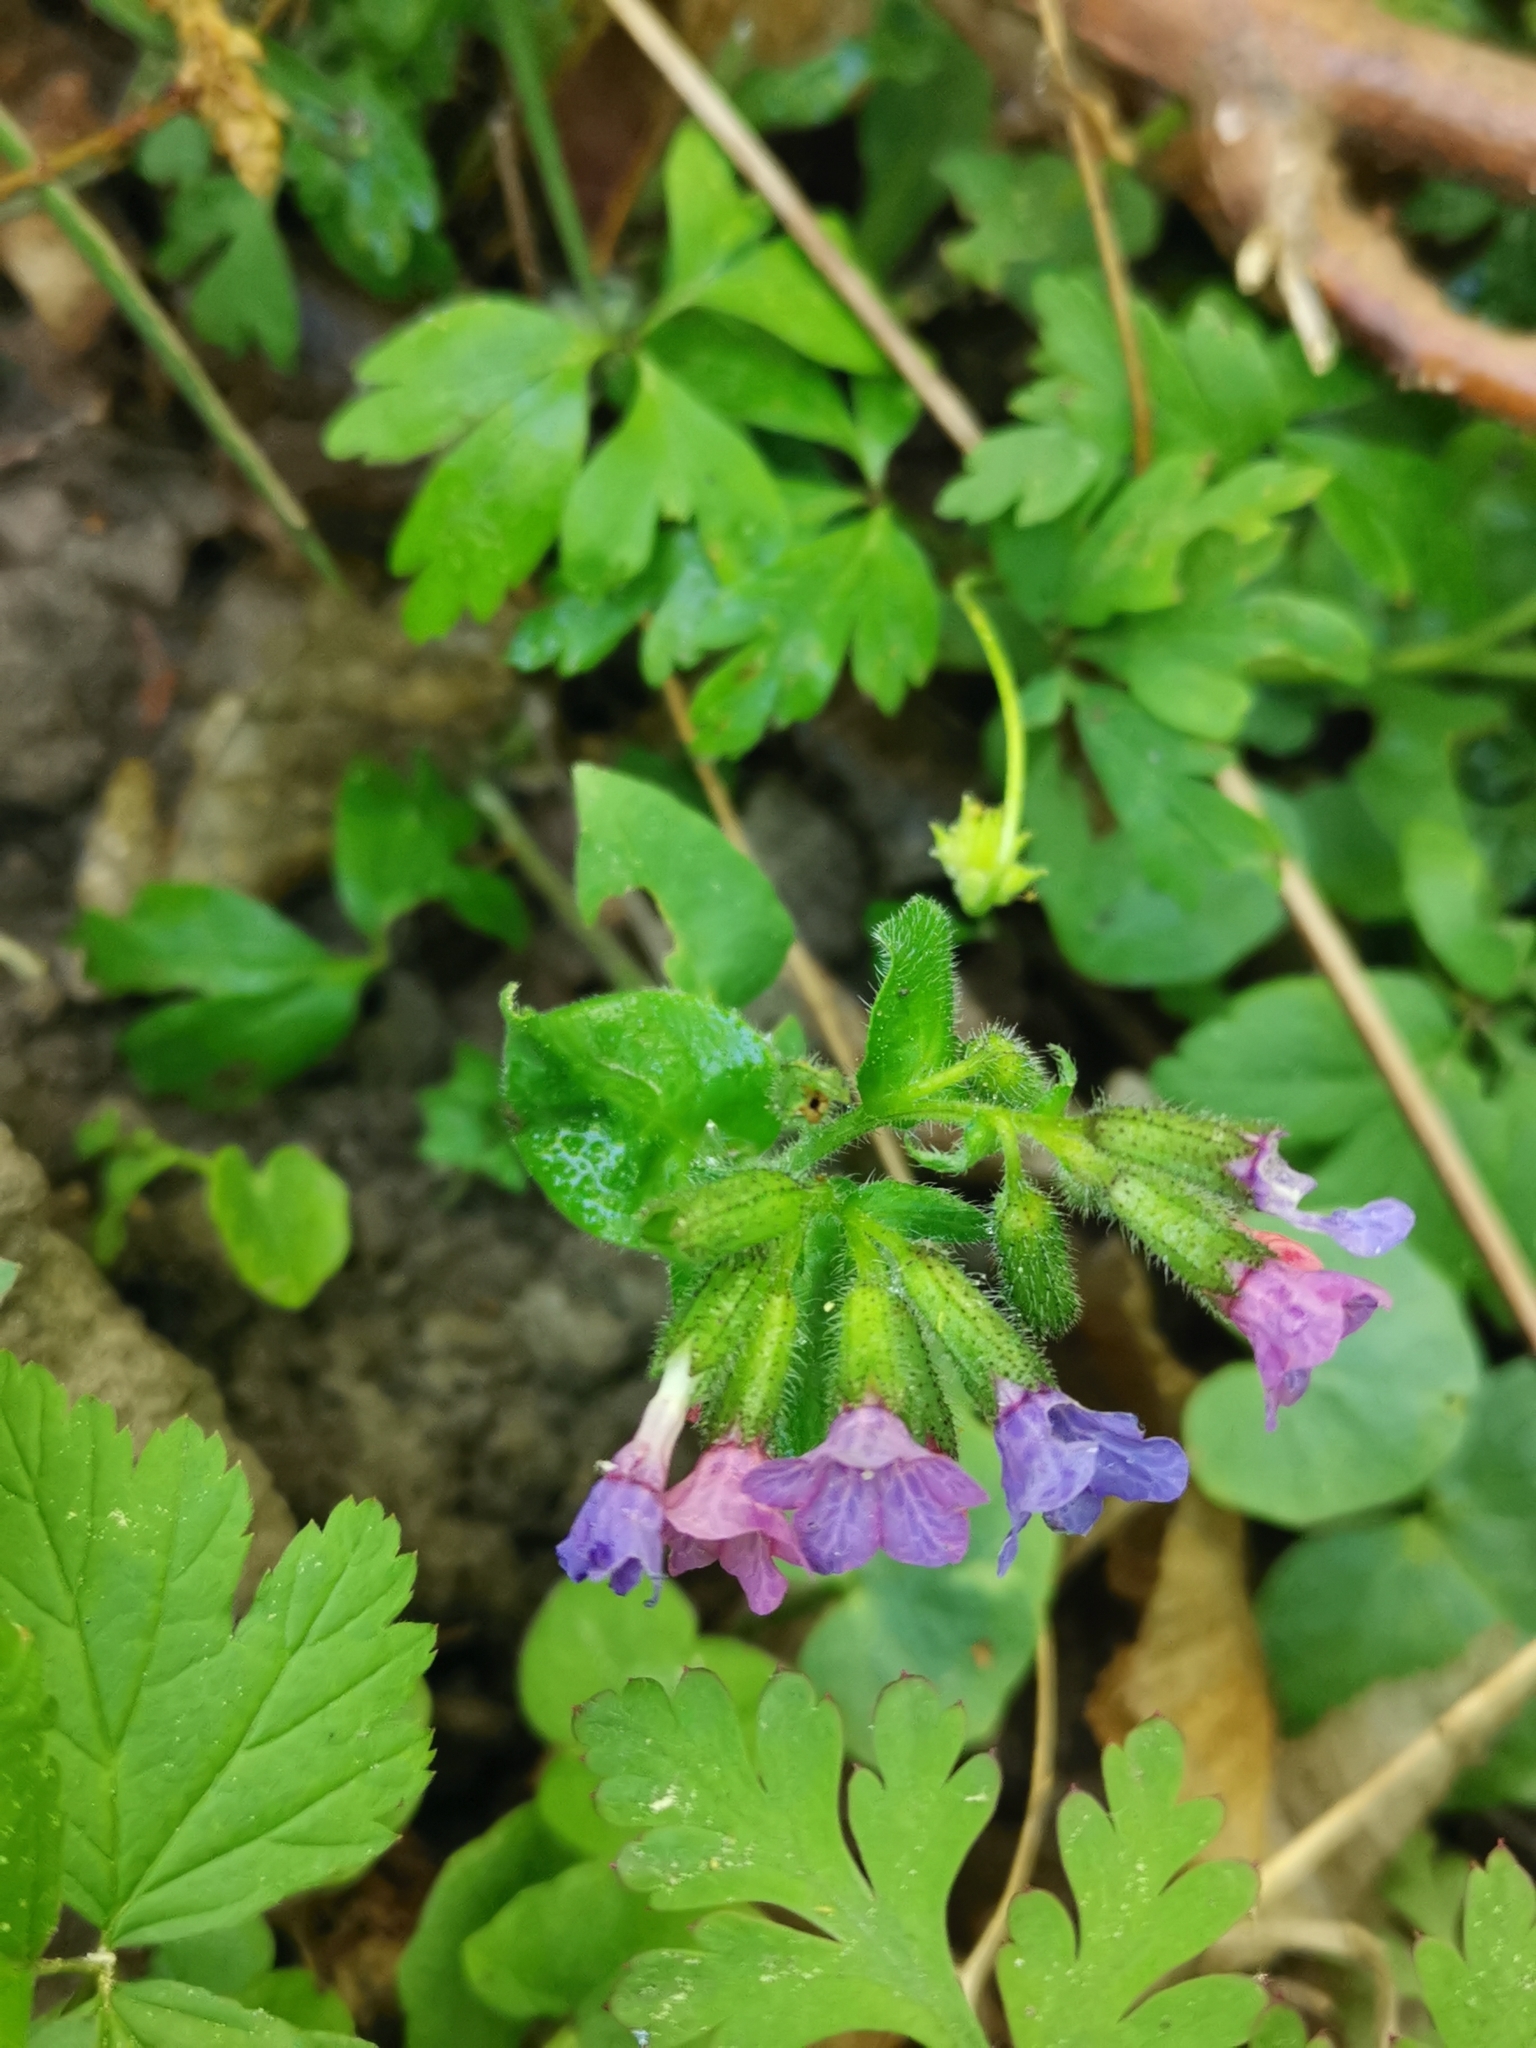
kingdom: Plantae
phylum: Tracheophyta
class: Magnoliopsida
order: Boraginales
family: Boraginaceae
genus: Pulmonaria
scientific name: Pulmonaria officinalis
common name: Lungwort
